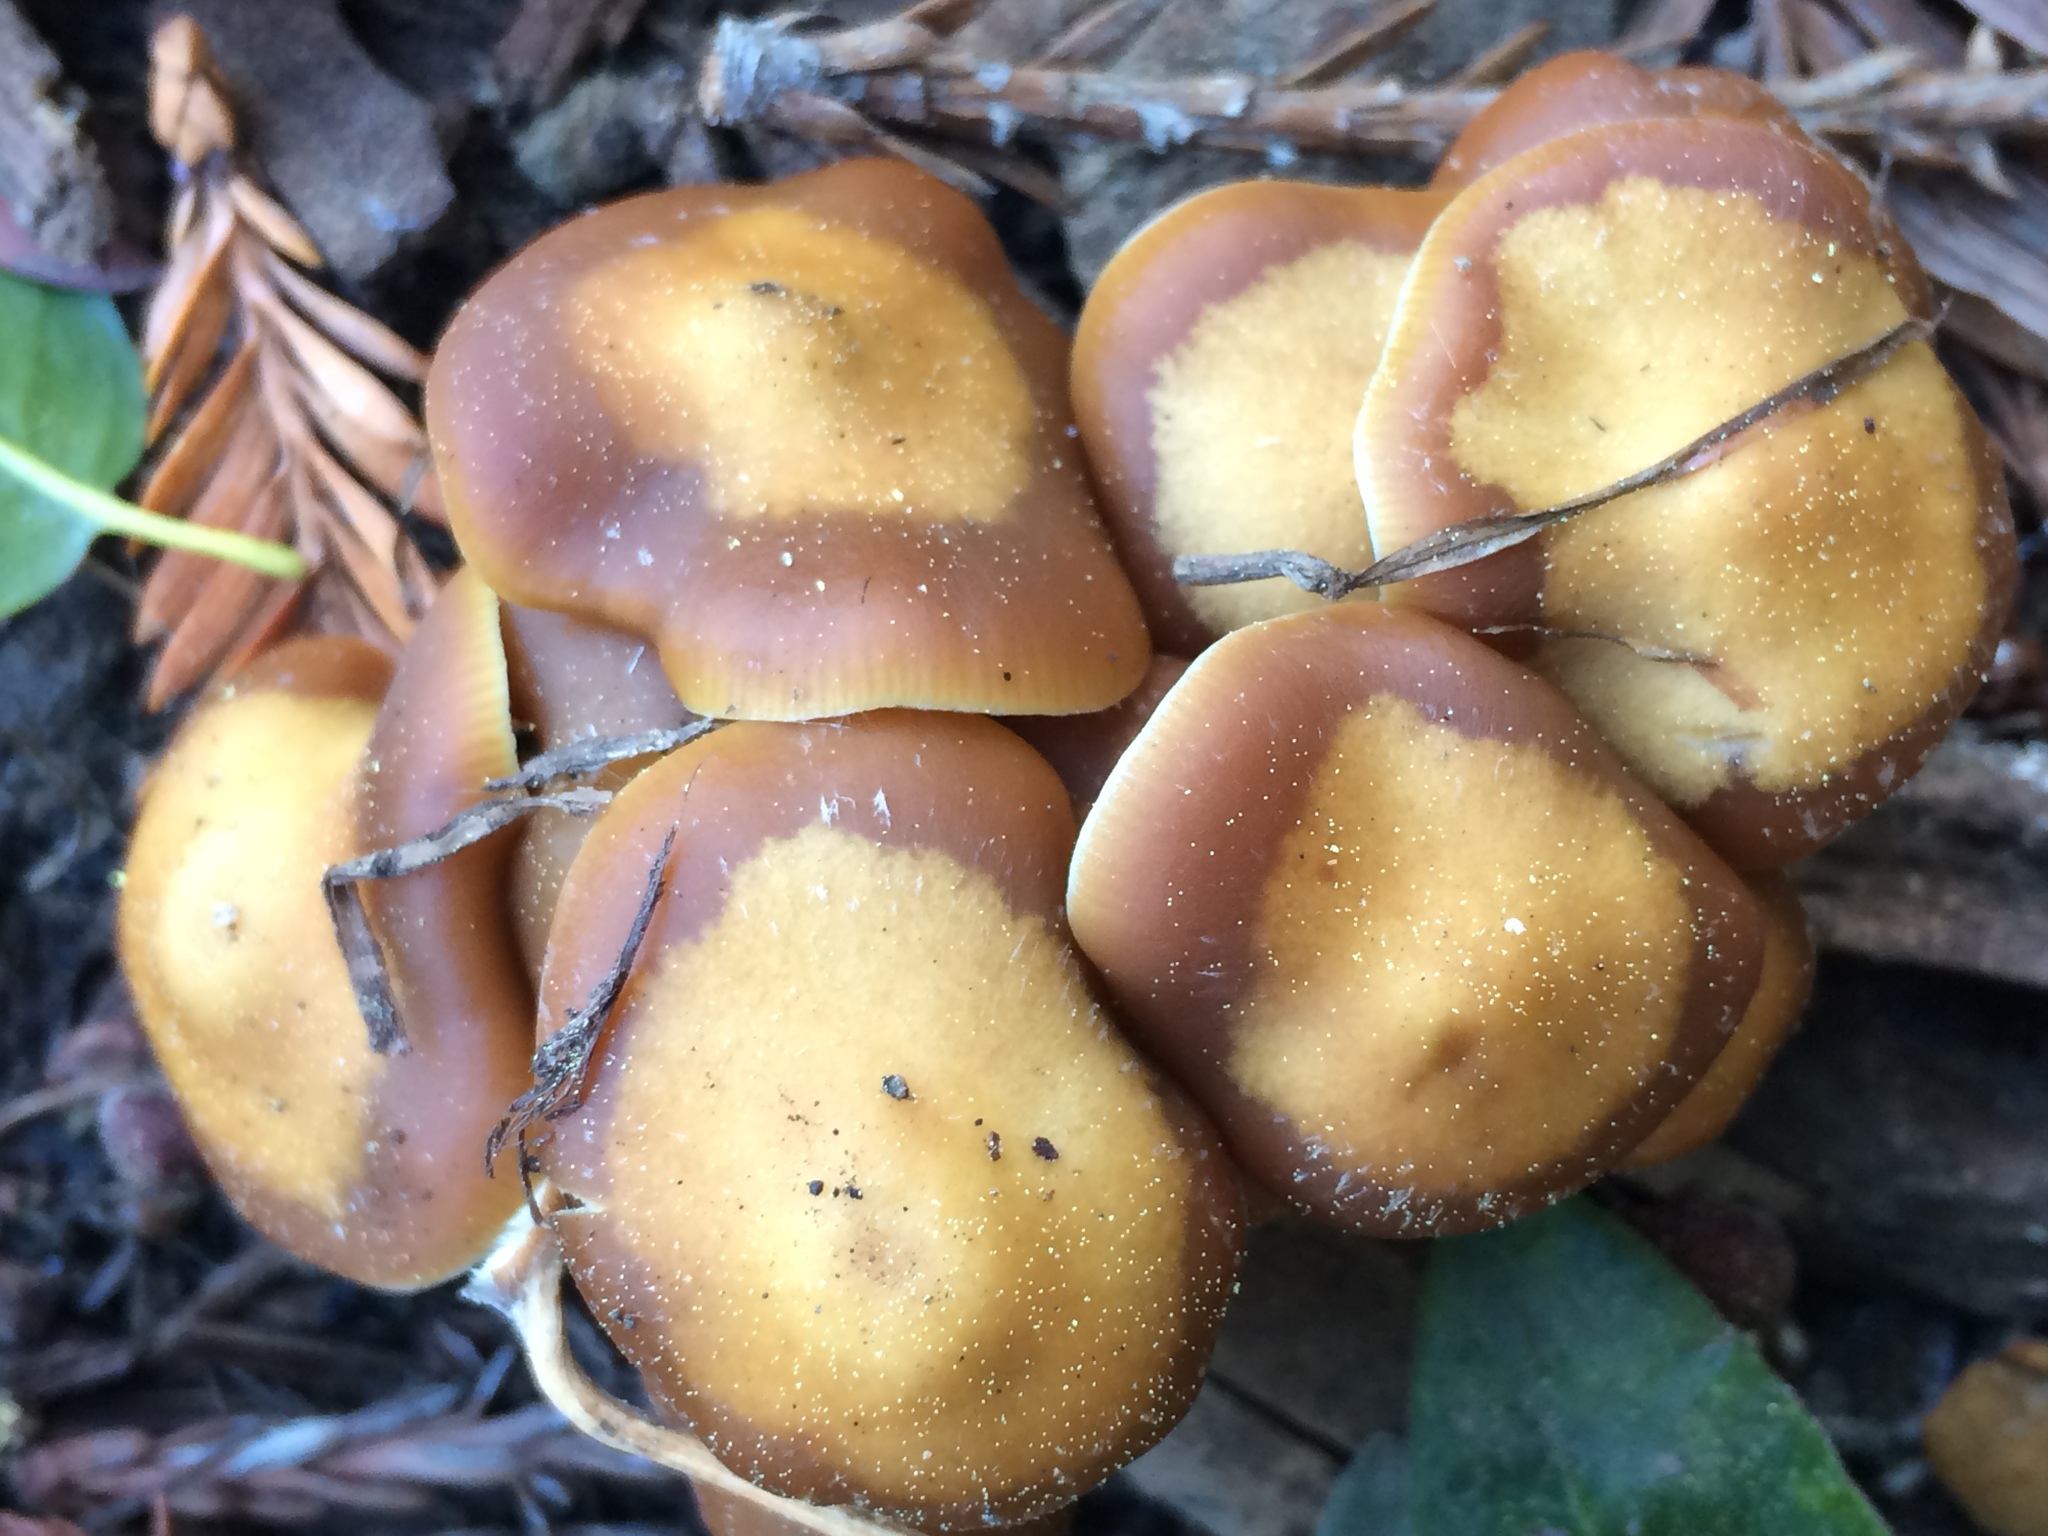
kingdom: Fungi
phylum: Basidiomycota
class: Agaricomycetes
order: Agaricales
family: Hymenogastraceae
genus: Psilocybe
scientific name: Psilocybe cyanescens
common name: Blueleg brownie
